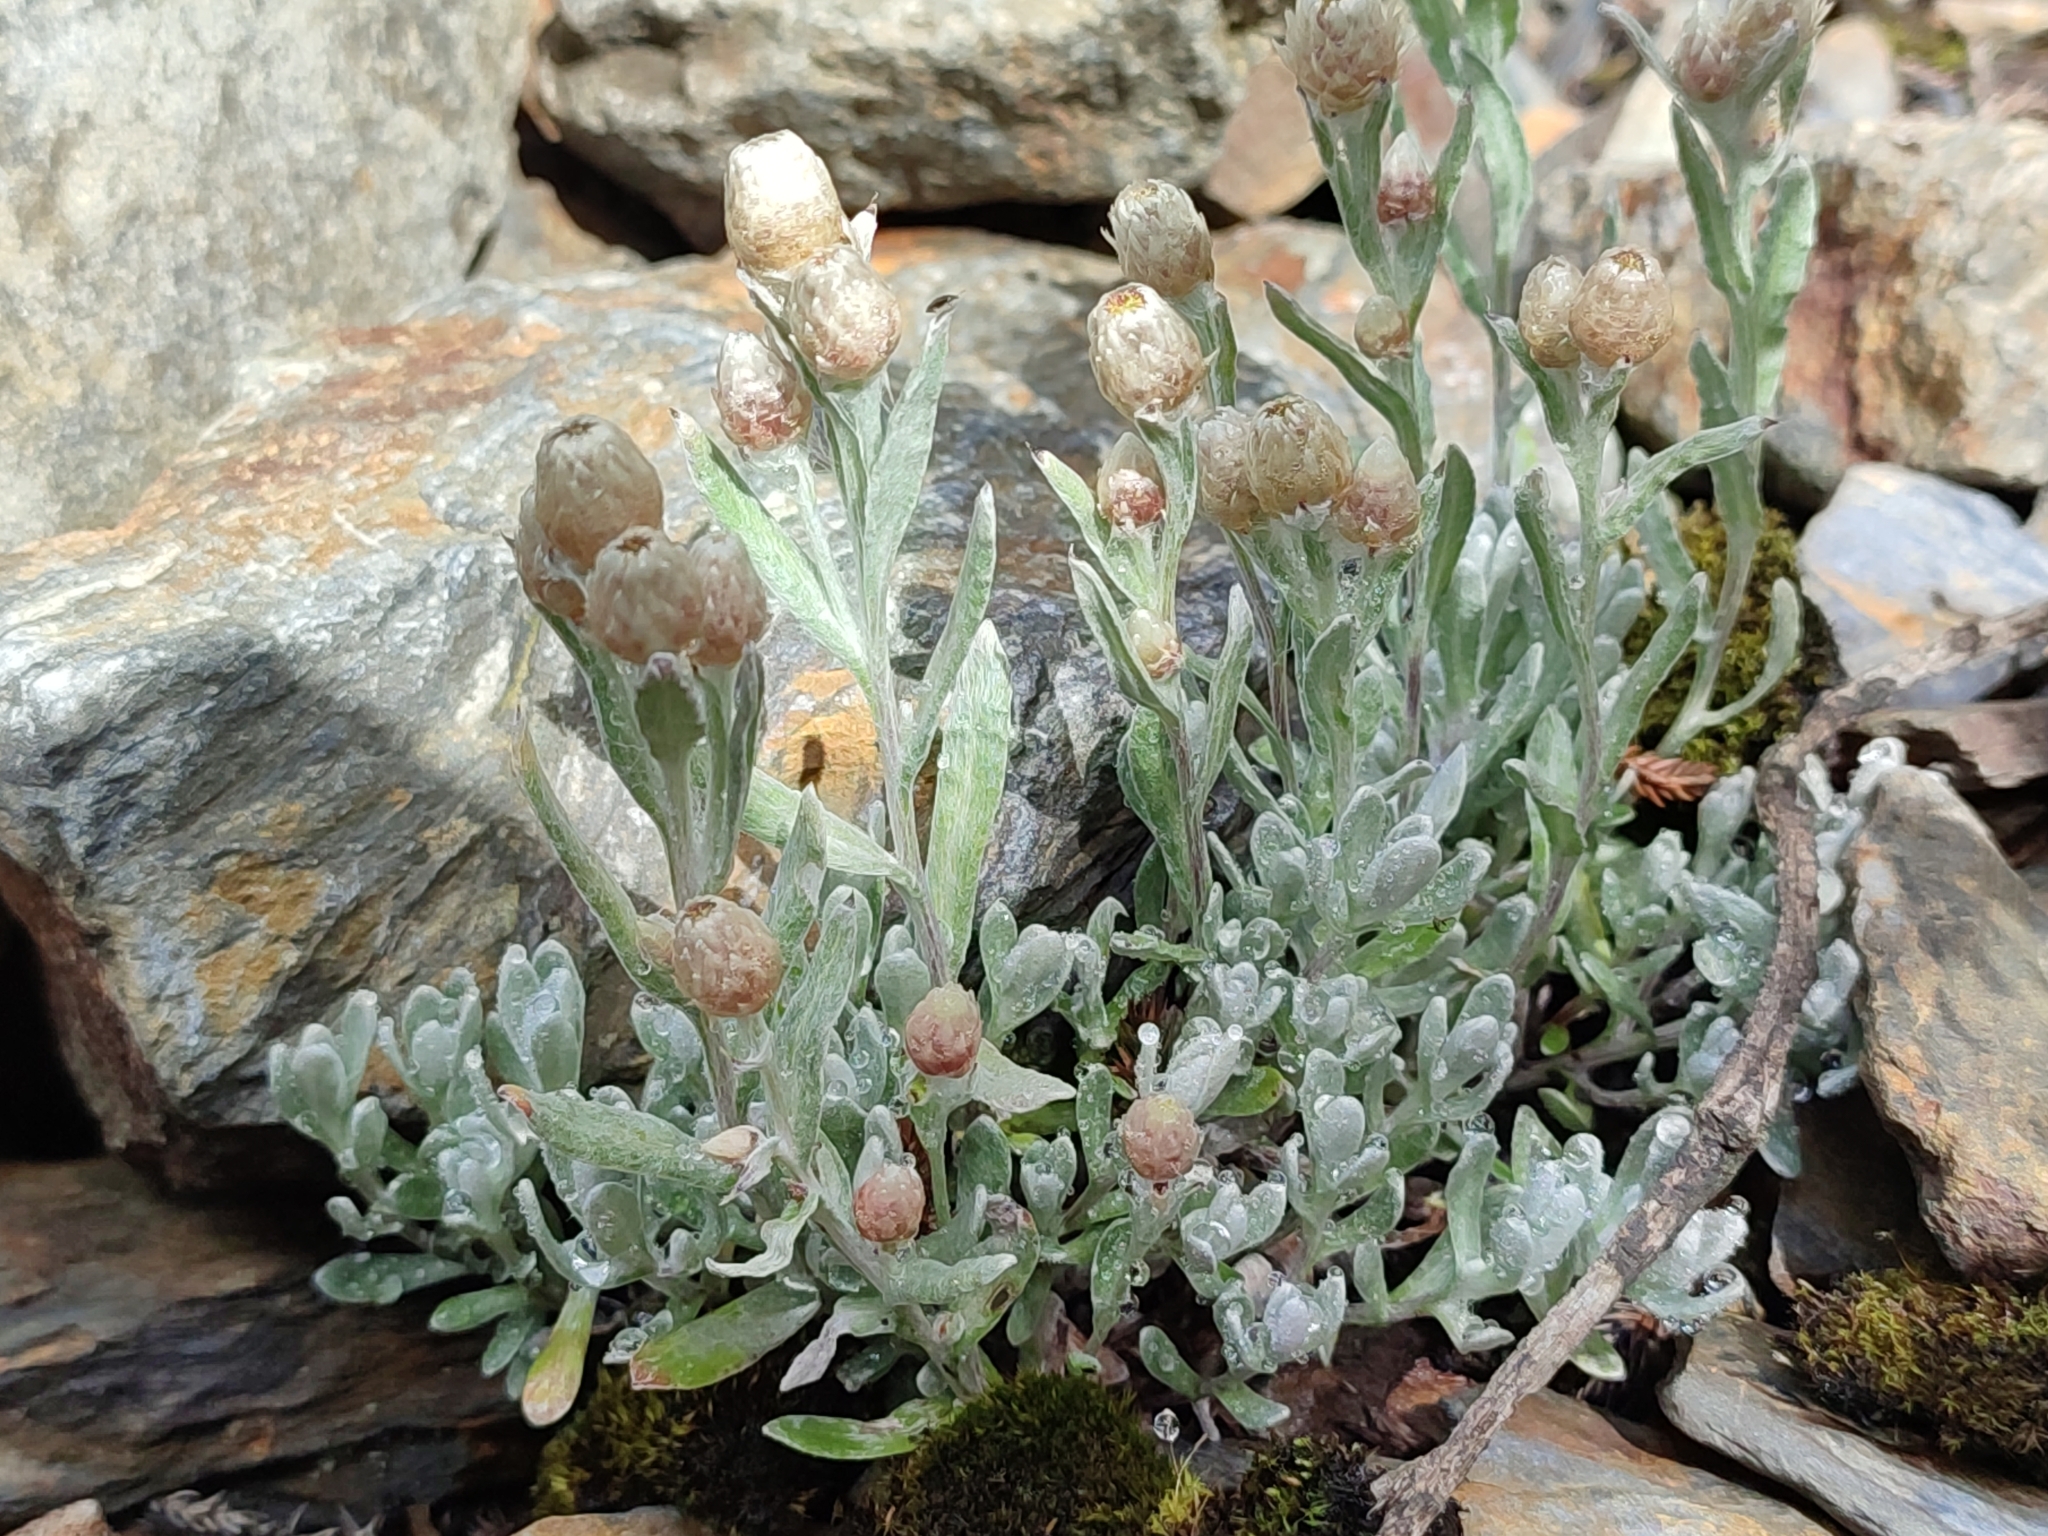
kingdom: Plantae
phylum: Tracheophyta
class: Magnoliopsida
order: Asterales
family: Asteraceae
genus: Anaphalis
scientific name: Anaphalis nepalensis
